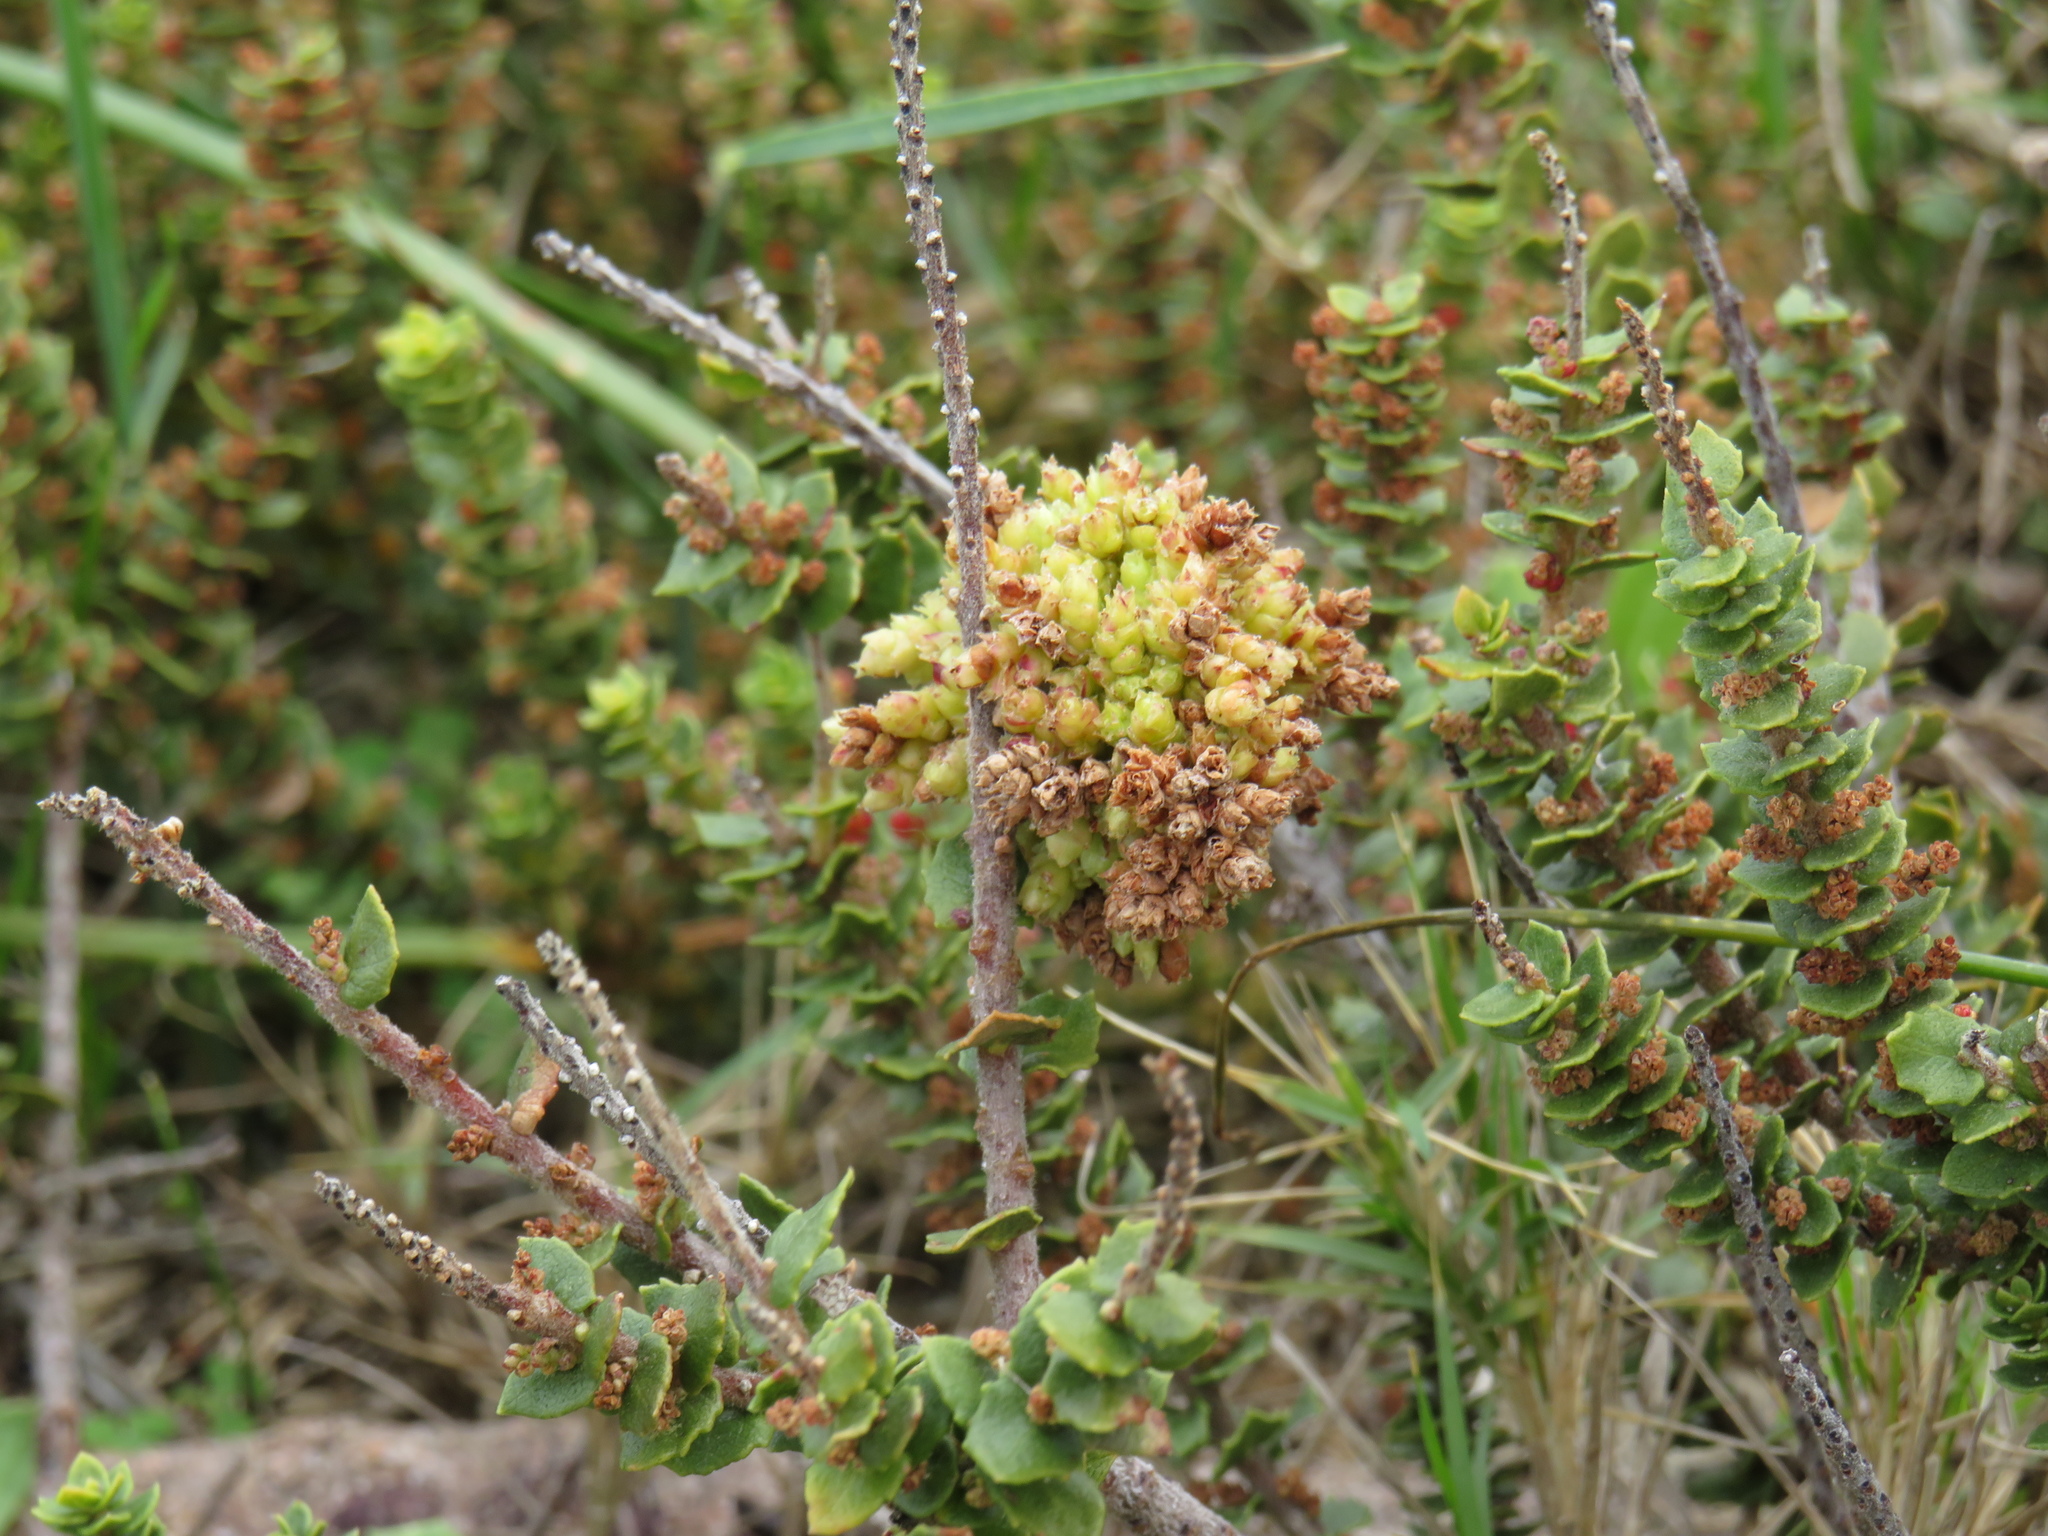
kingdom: Plantae
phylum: Tracheophyta
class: Magnoliopsida
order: Fagales
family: Myricaceae
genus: Morella
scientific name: Morella cordifolia
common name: Waxberry
